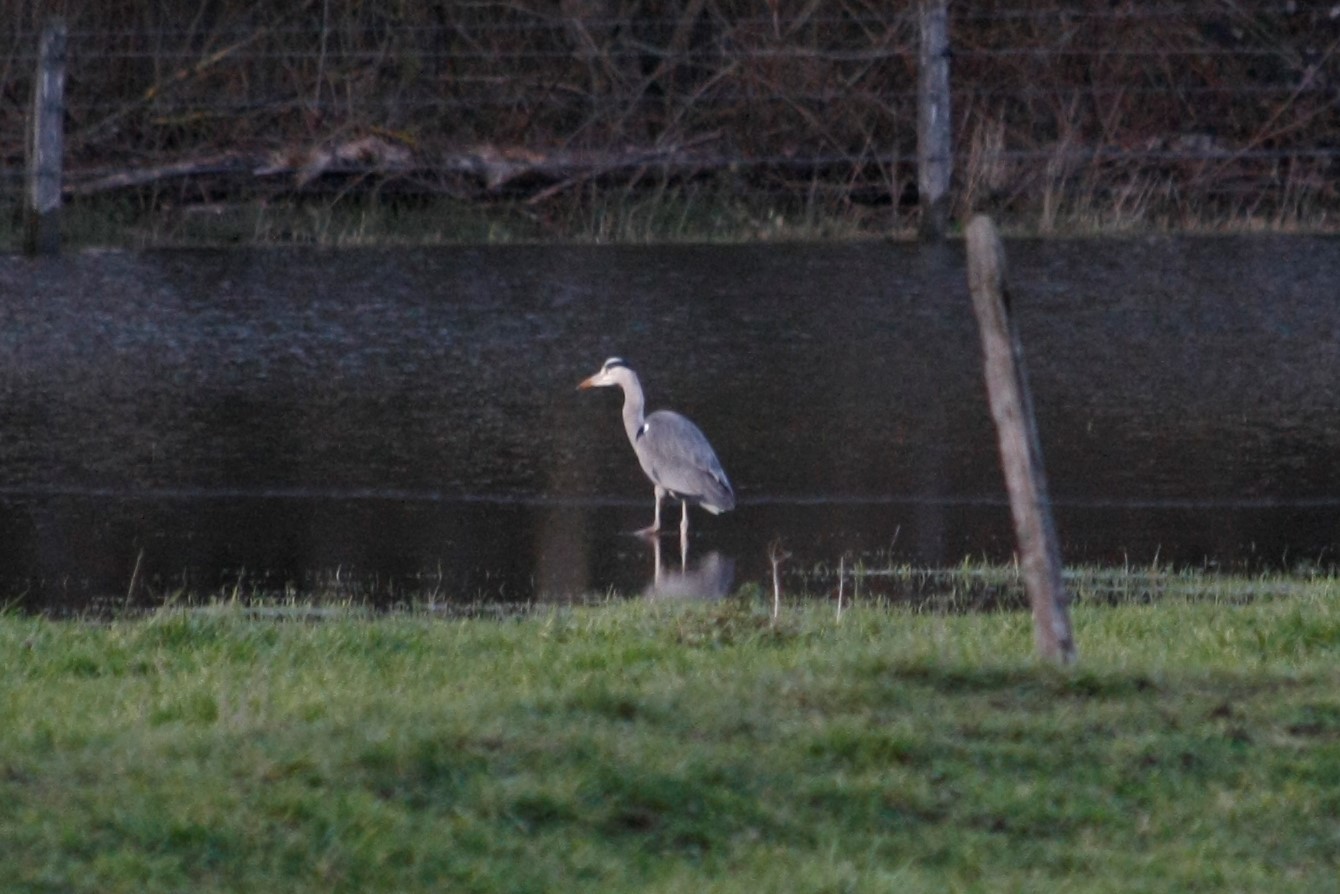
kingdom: Animalia
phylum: Chordata
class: Aves
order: Pelecaniformes
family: Ardeidae
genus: Ardea
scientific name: Ardea cinerea
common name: Grey heron
